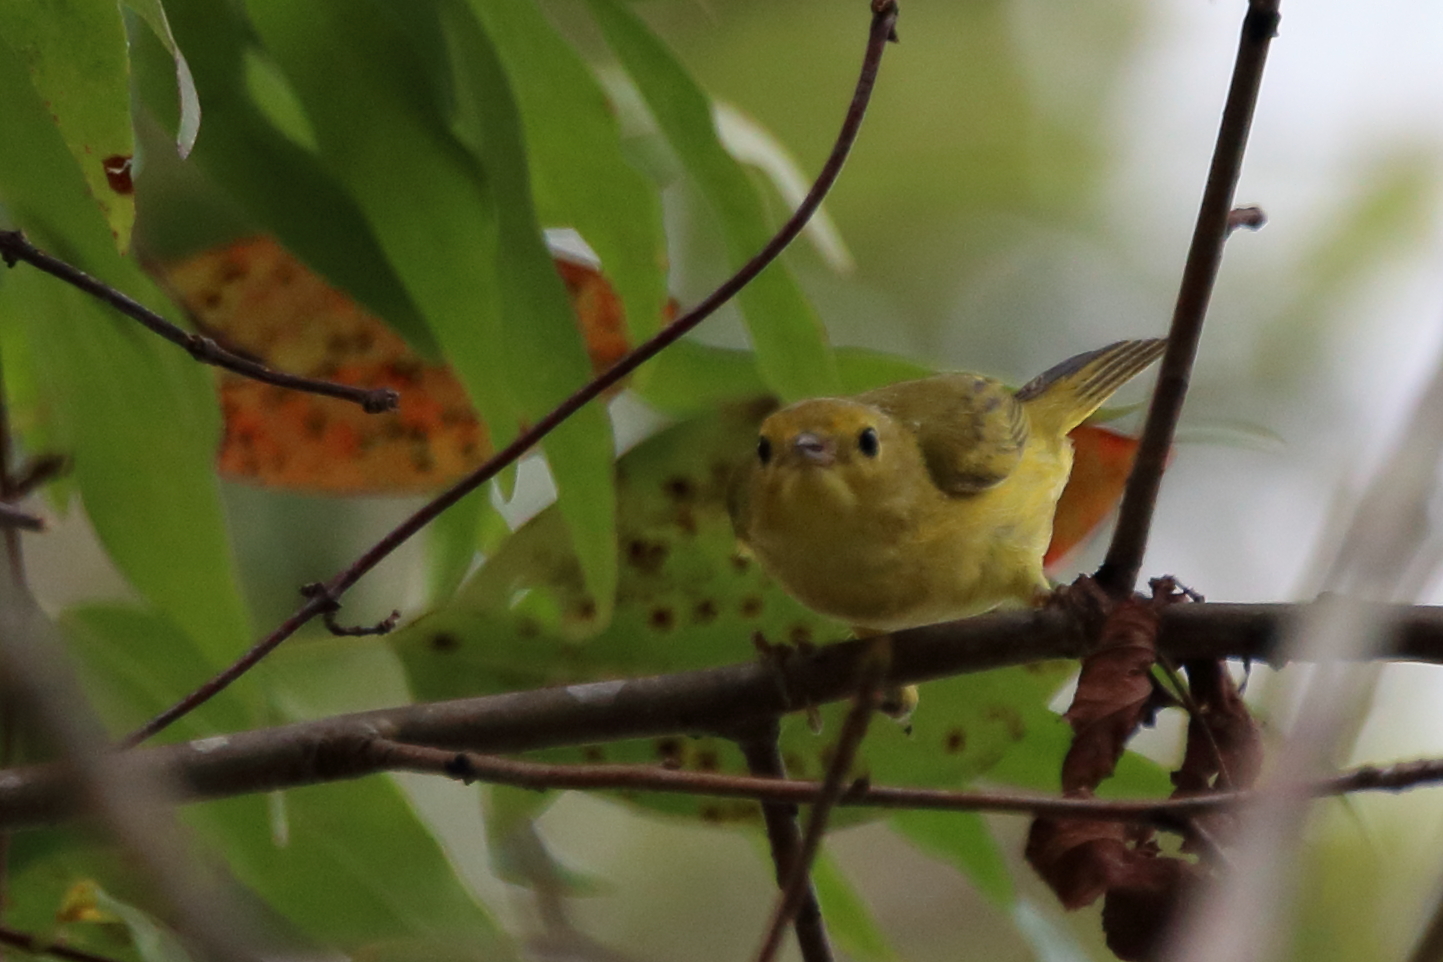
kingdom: Animalia
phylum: Chordata
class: Aves
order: Passeriformes
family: Parulidae
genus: Setophaga
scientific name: Setophaga petechia
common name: Yellow warbler
